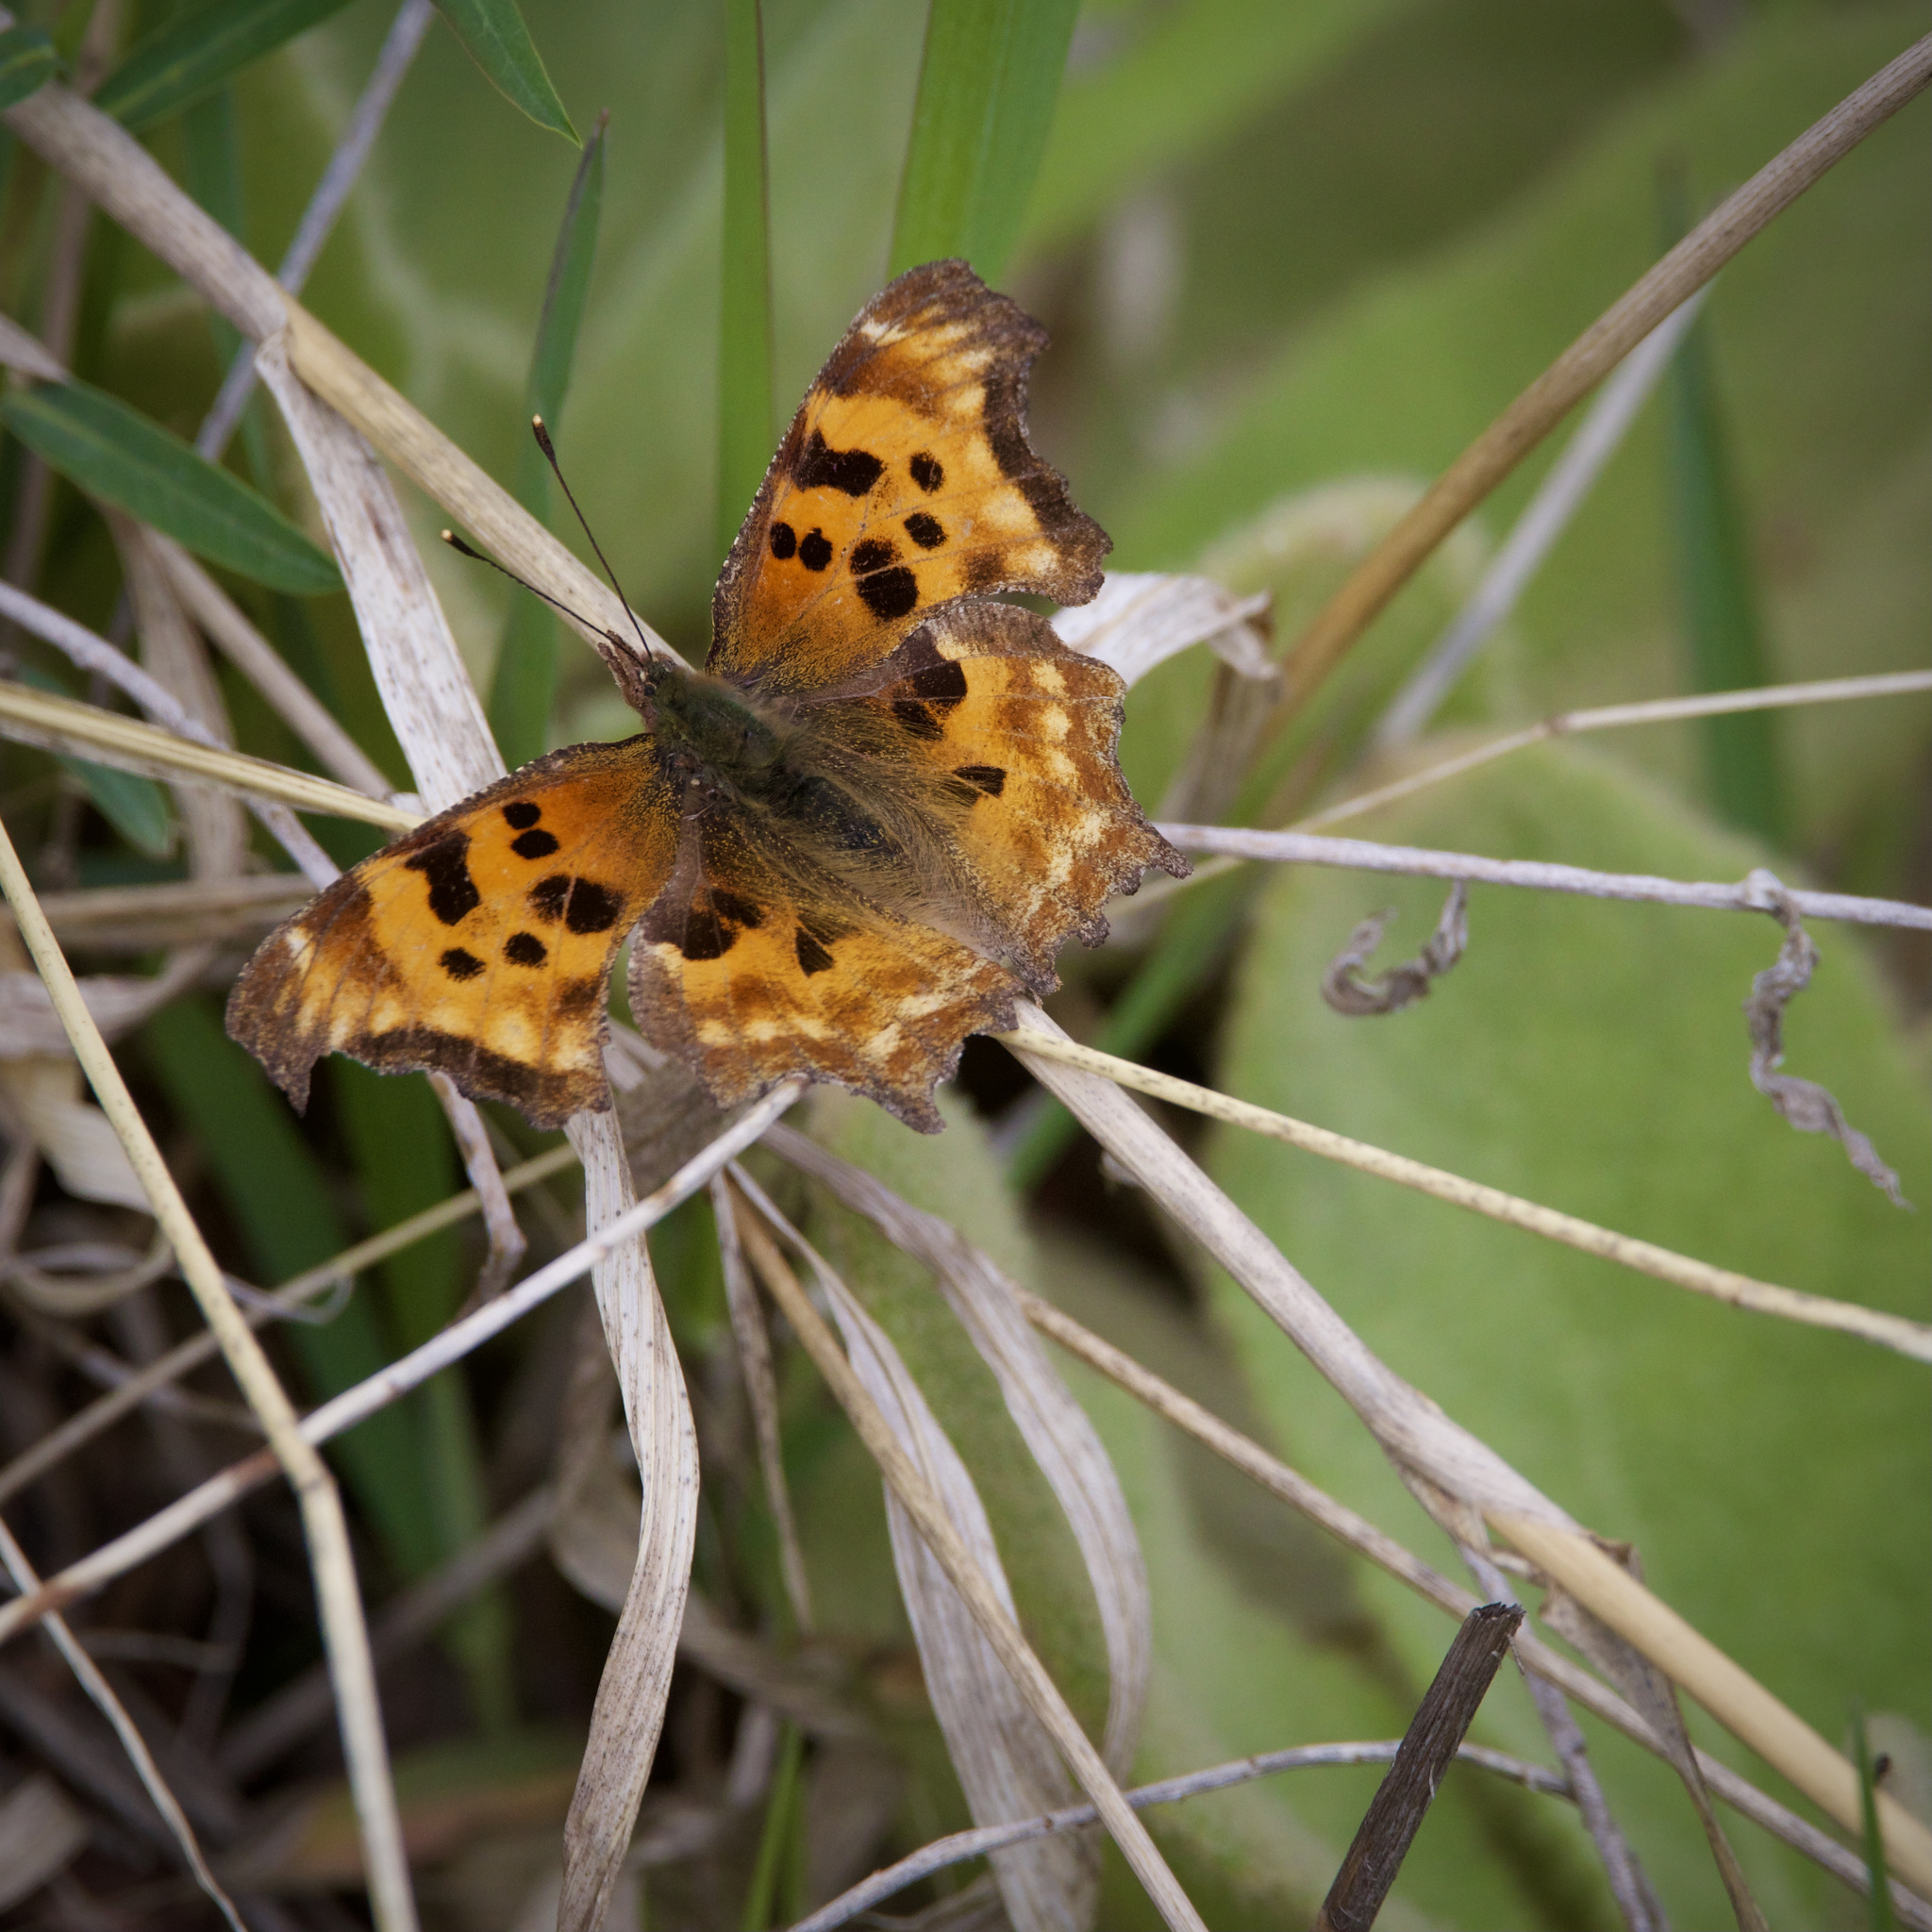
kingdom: Animalia
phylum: Arthropoda
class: Insecta
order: Lepidoptera
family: Nymphalidae
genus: Polygonia
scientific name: Polygonia satyrus
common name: Satyr angle wing
